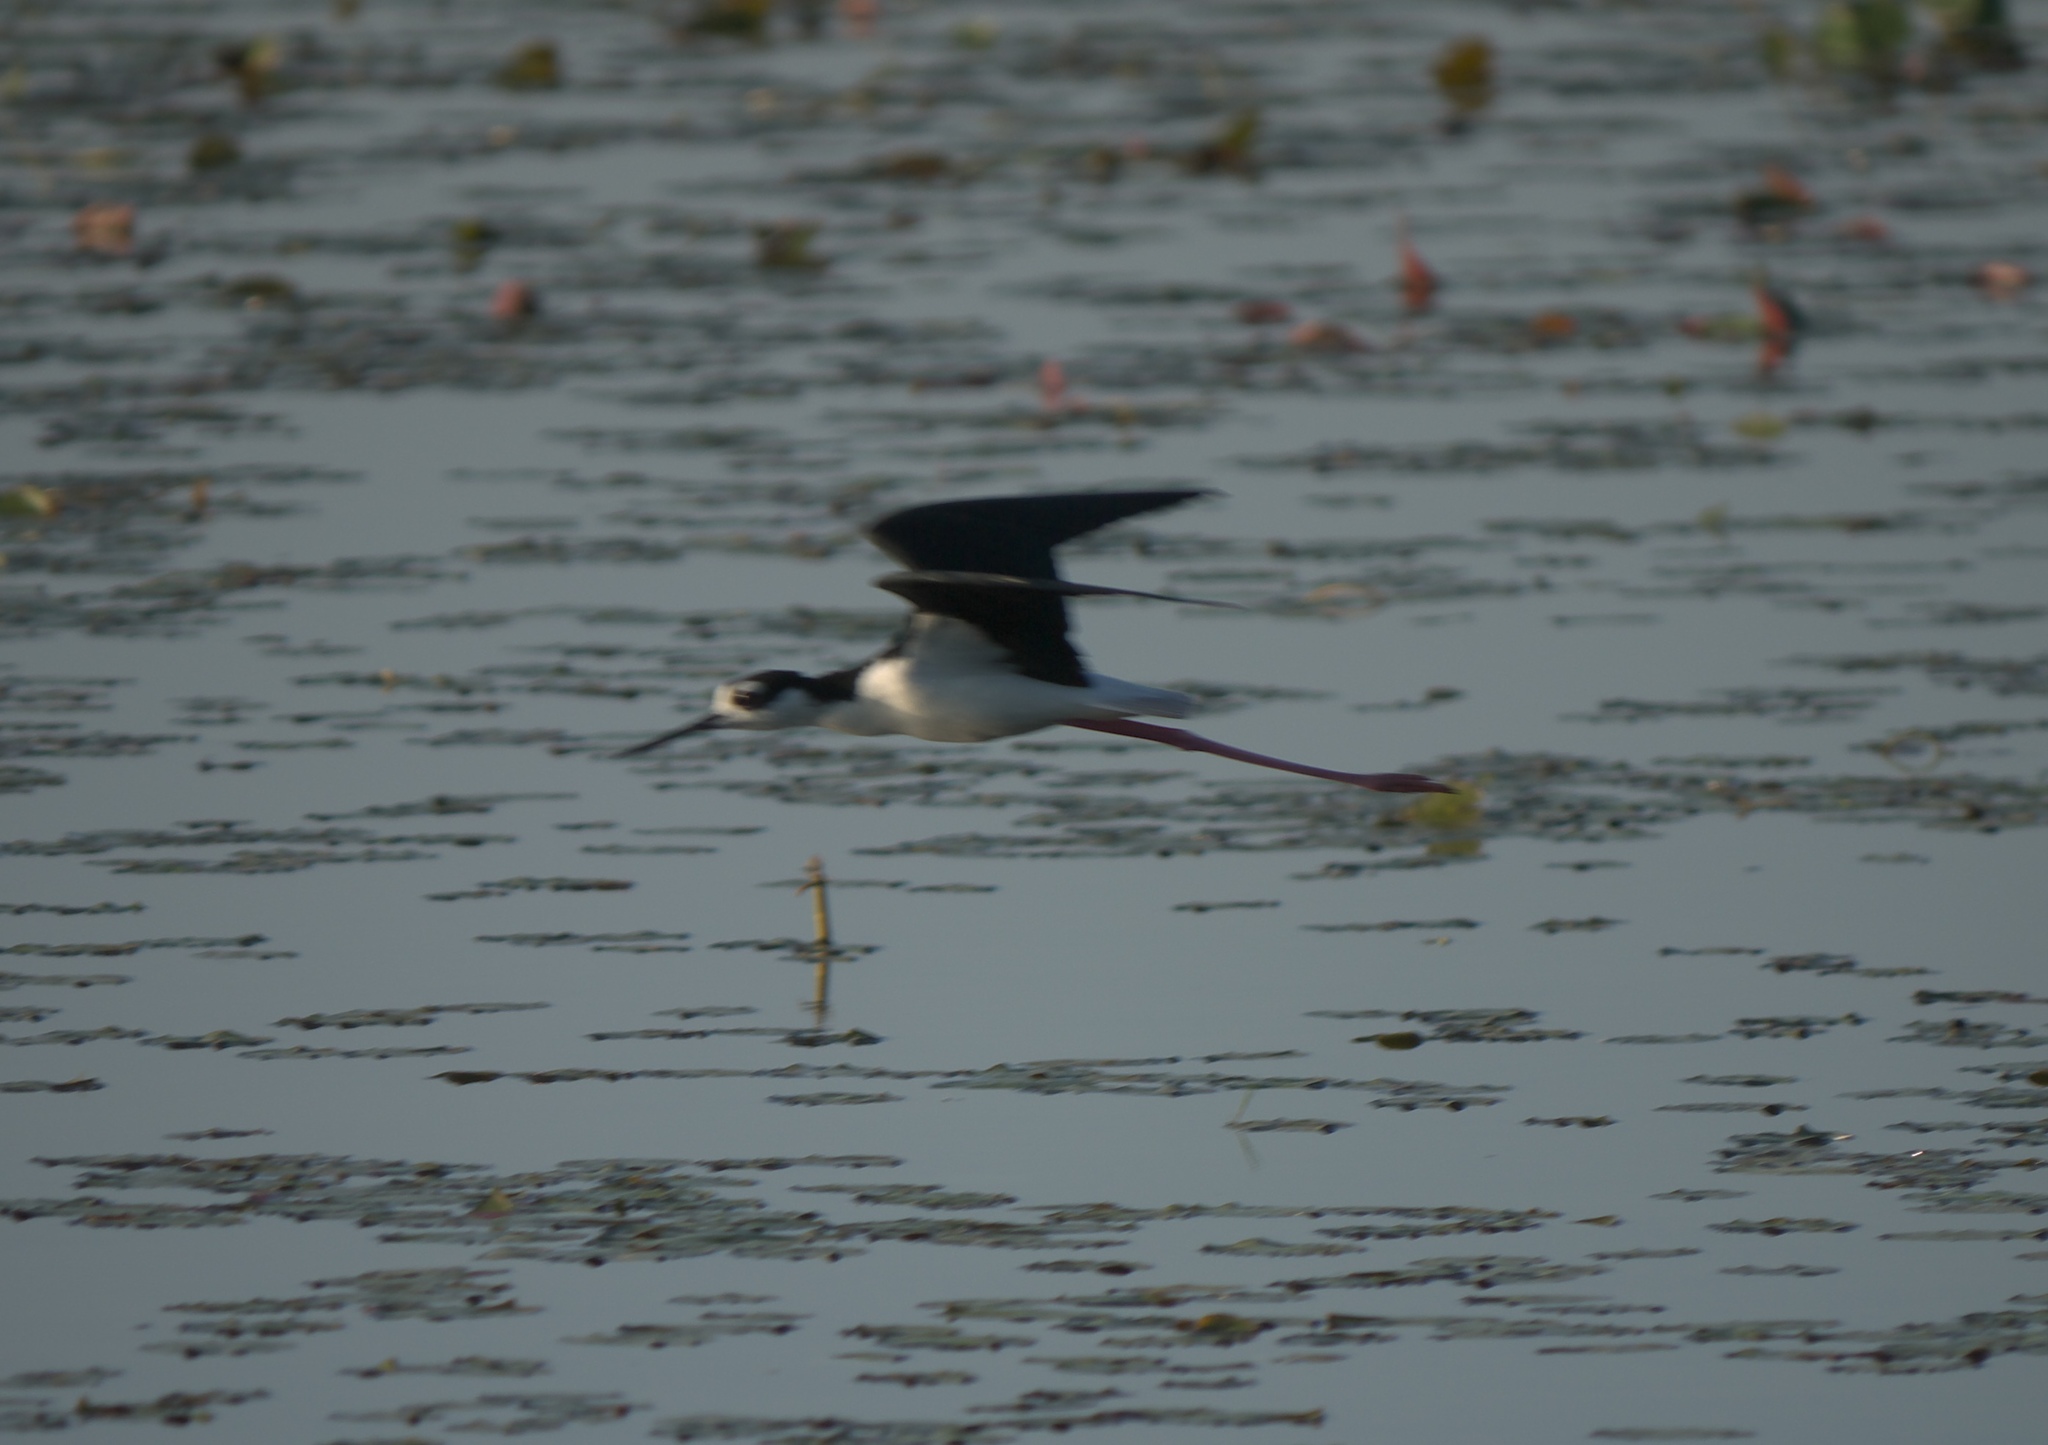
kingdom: Animalia
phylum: Chordata
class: Aves
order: Charadriiformes
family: Recurvirostridae
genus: Himantopus
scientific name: Himantopus mexicanus
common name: Black-necked stilt
